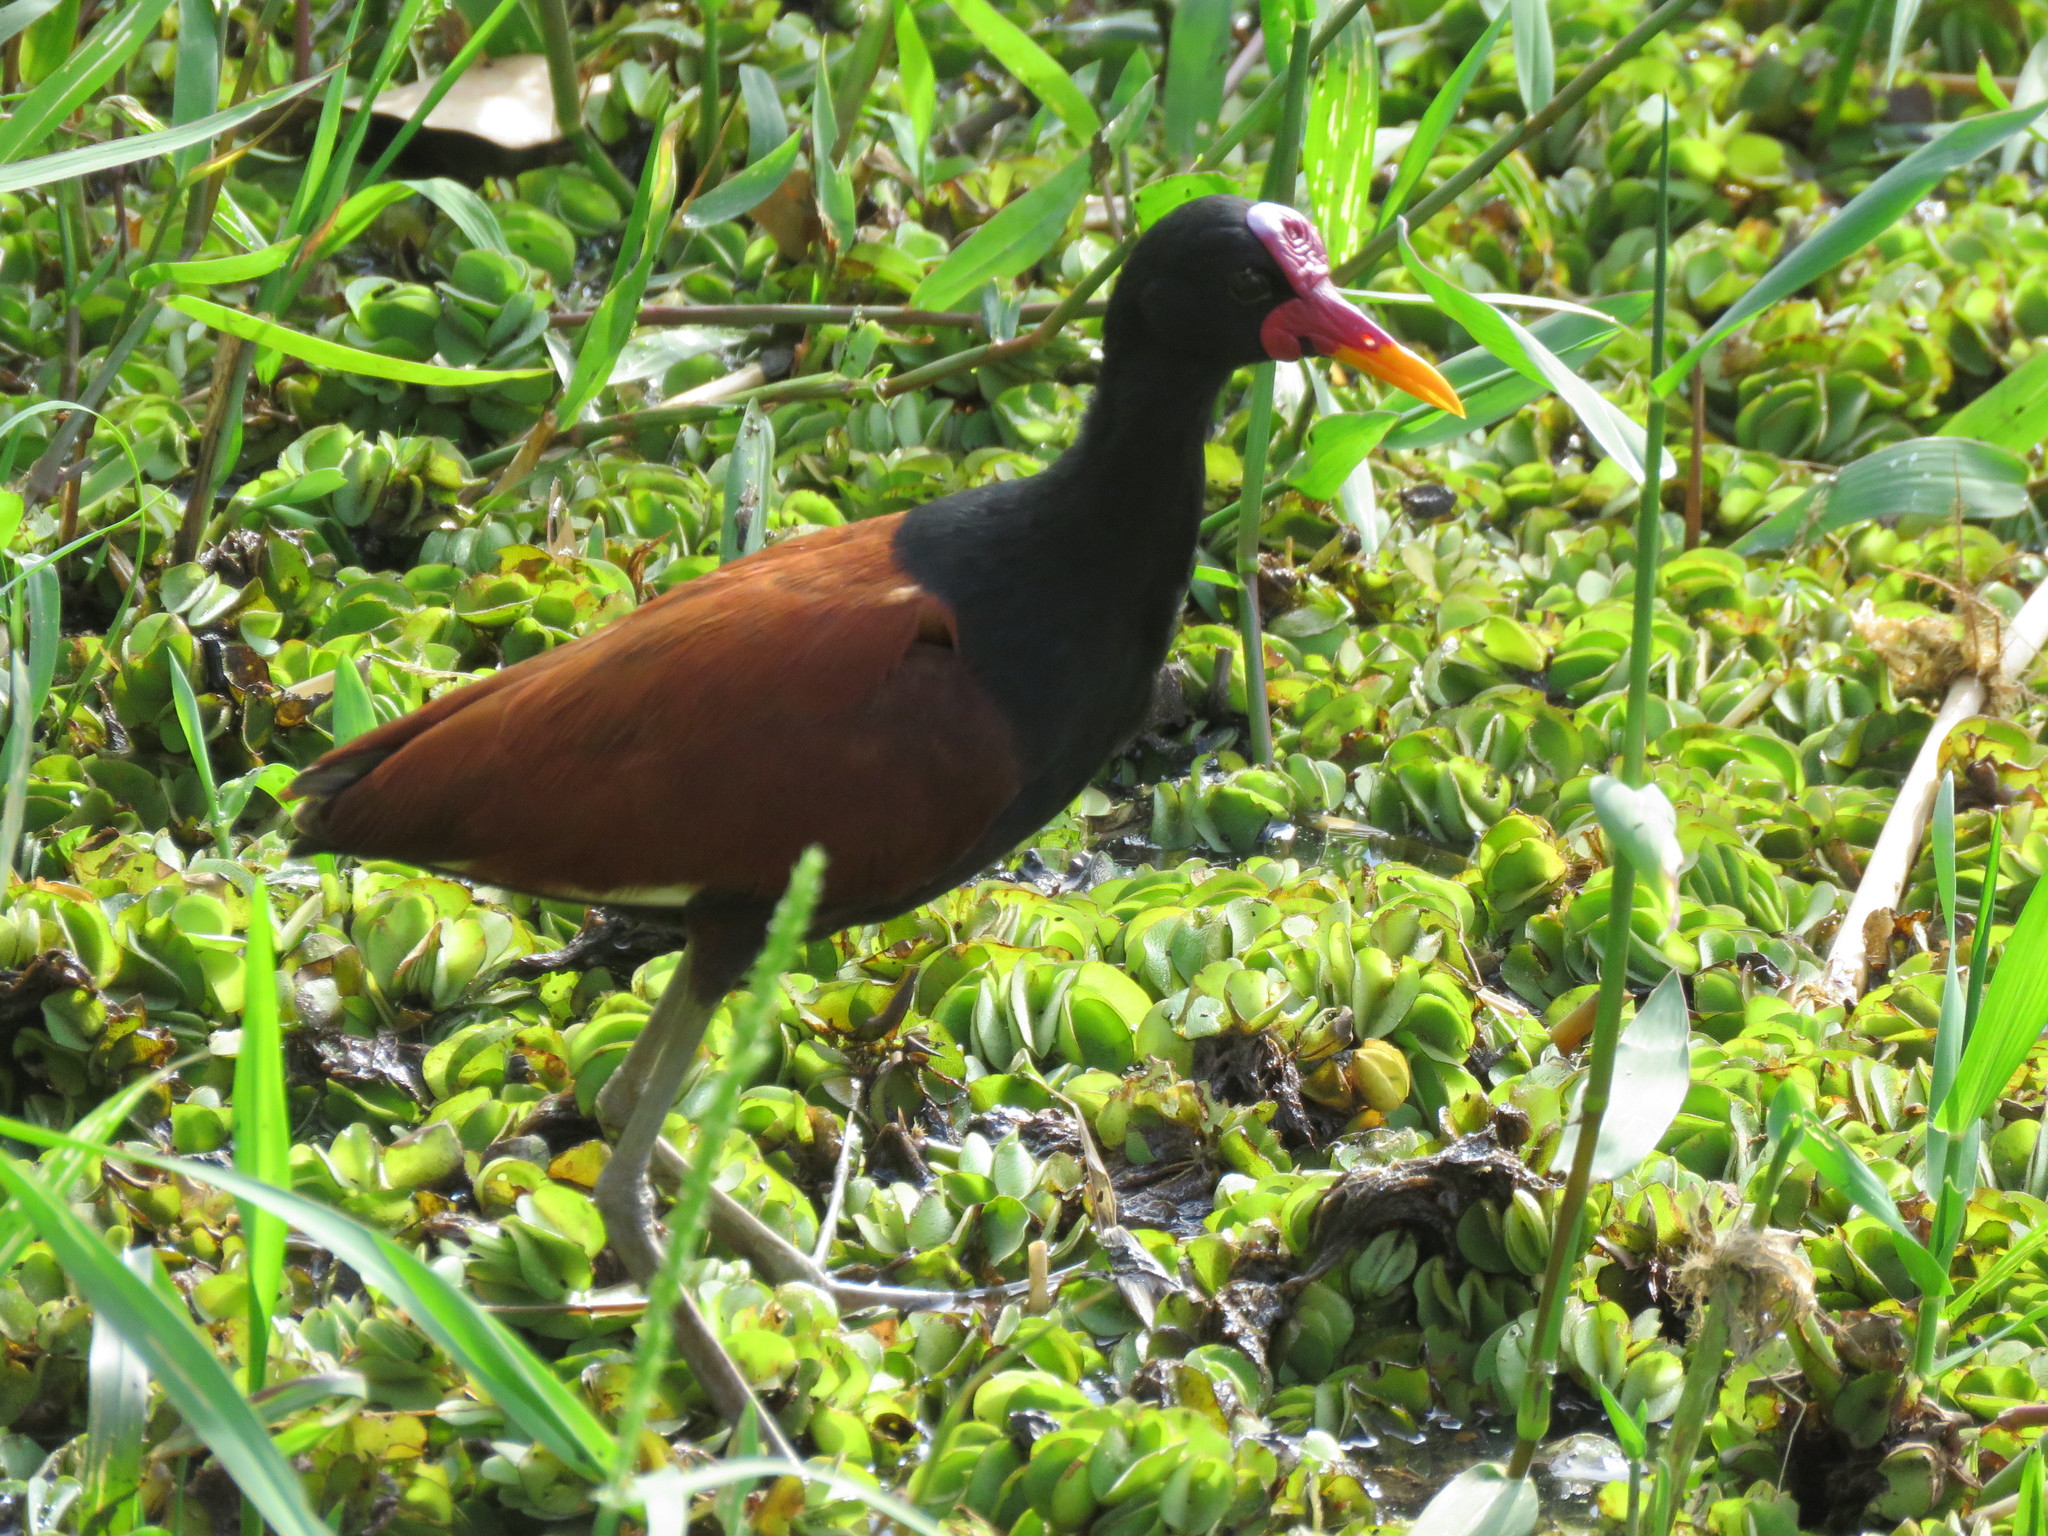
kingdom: Animalia
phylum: Chordata
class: Aves
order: Charadriiformes
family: Jacanidae
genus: Jacana
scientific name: Jacana jacana
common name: Wattled jacana
